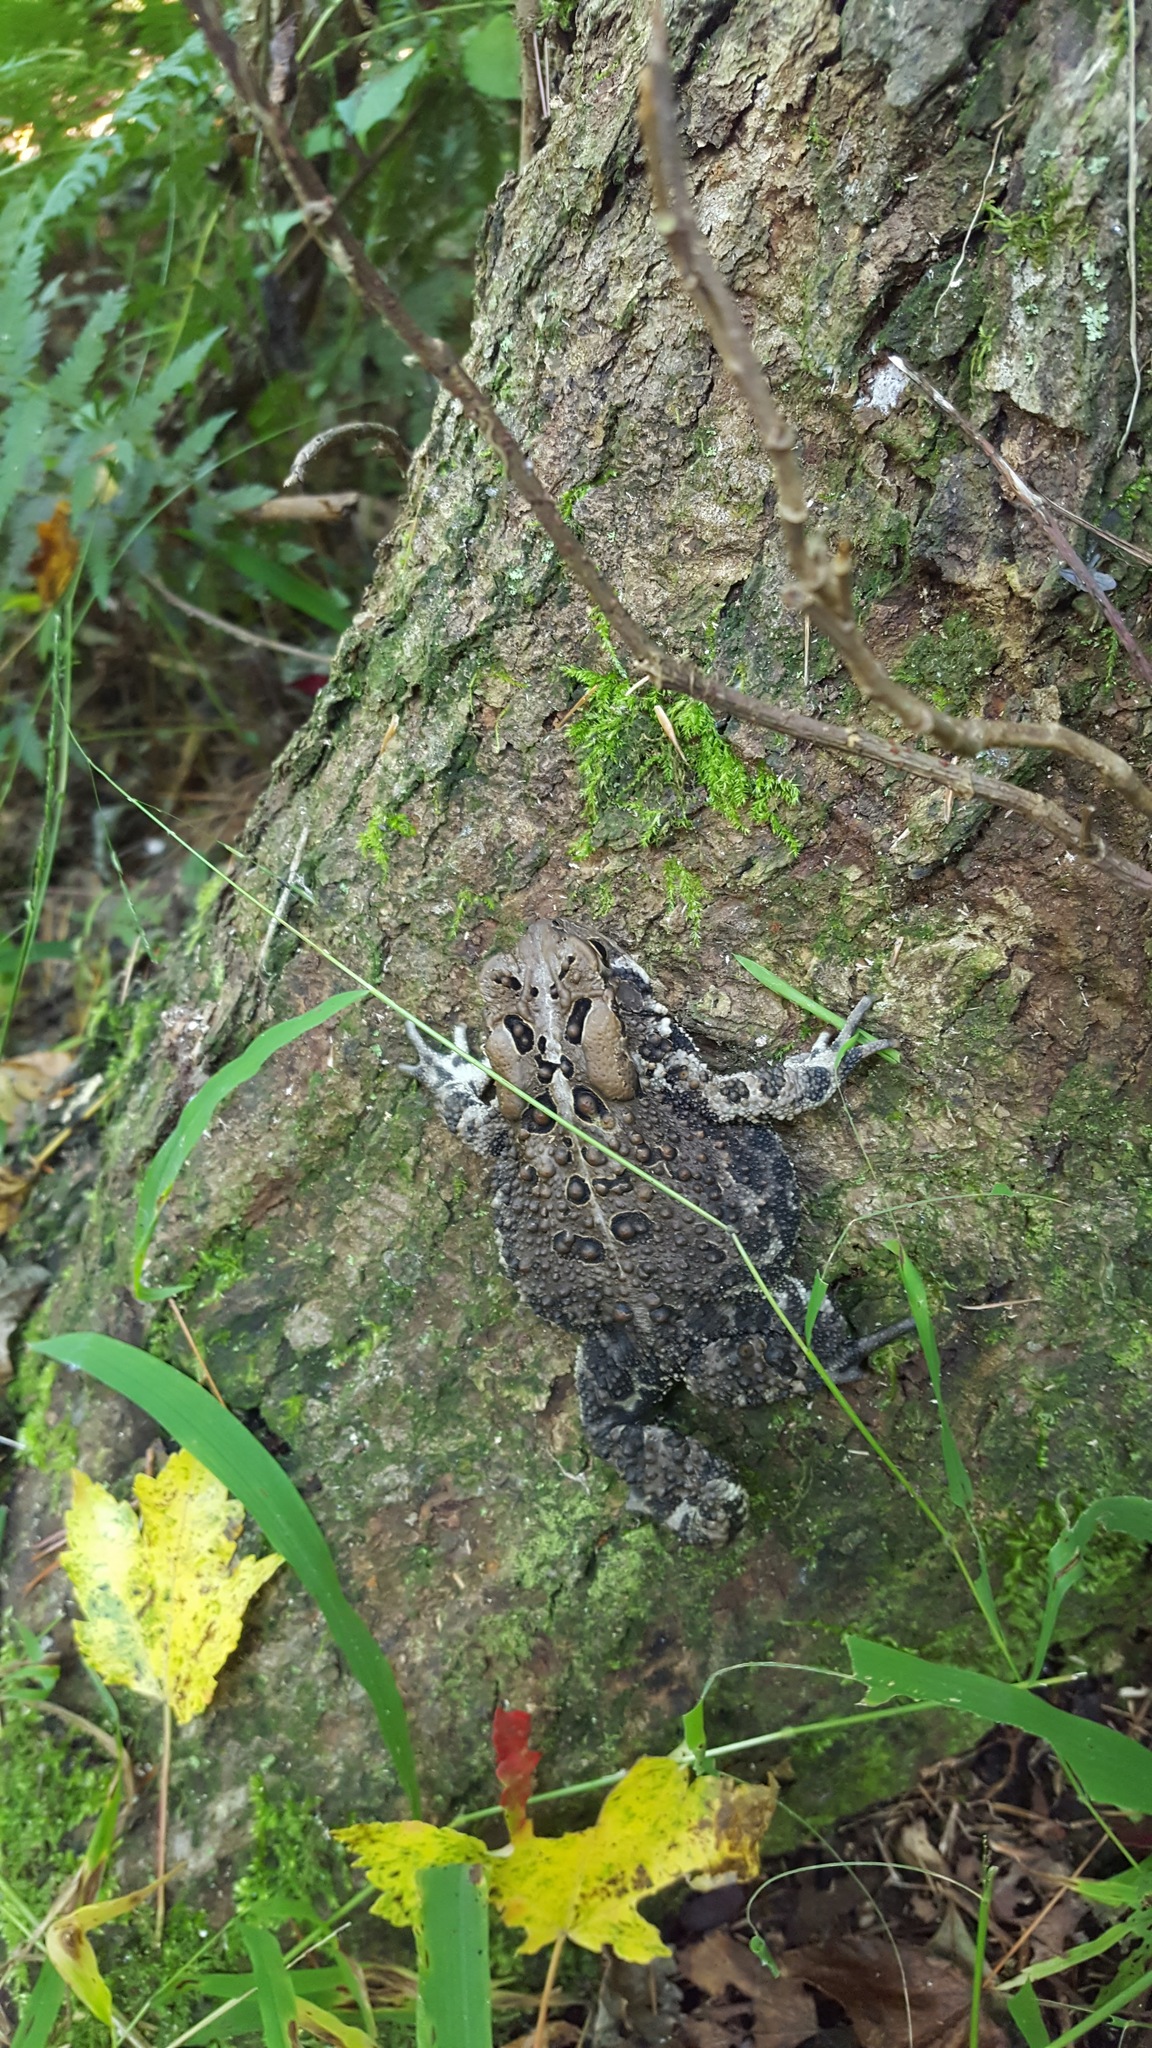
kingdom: Animalia
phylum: Chordata
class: Amphibia
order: Anura
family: Bufonidae
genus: Anaxyrus
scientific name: Anaxyrus americanus
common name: American toad
